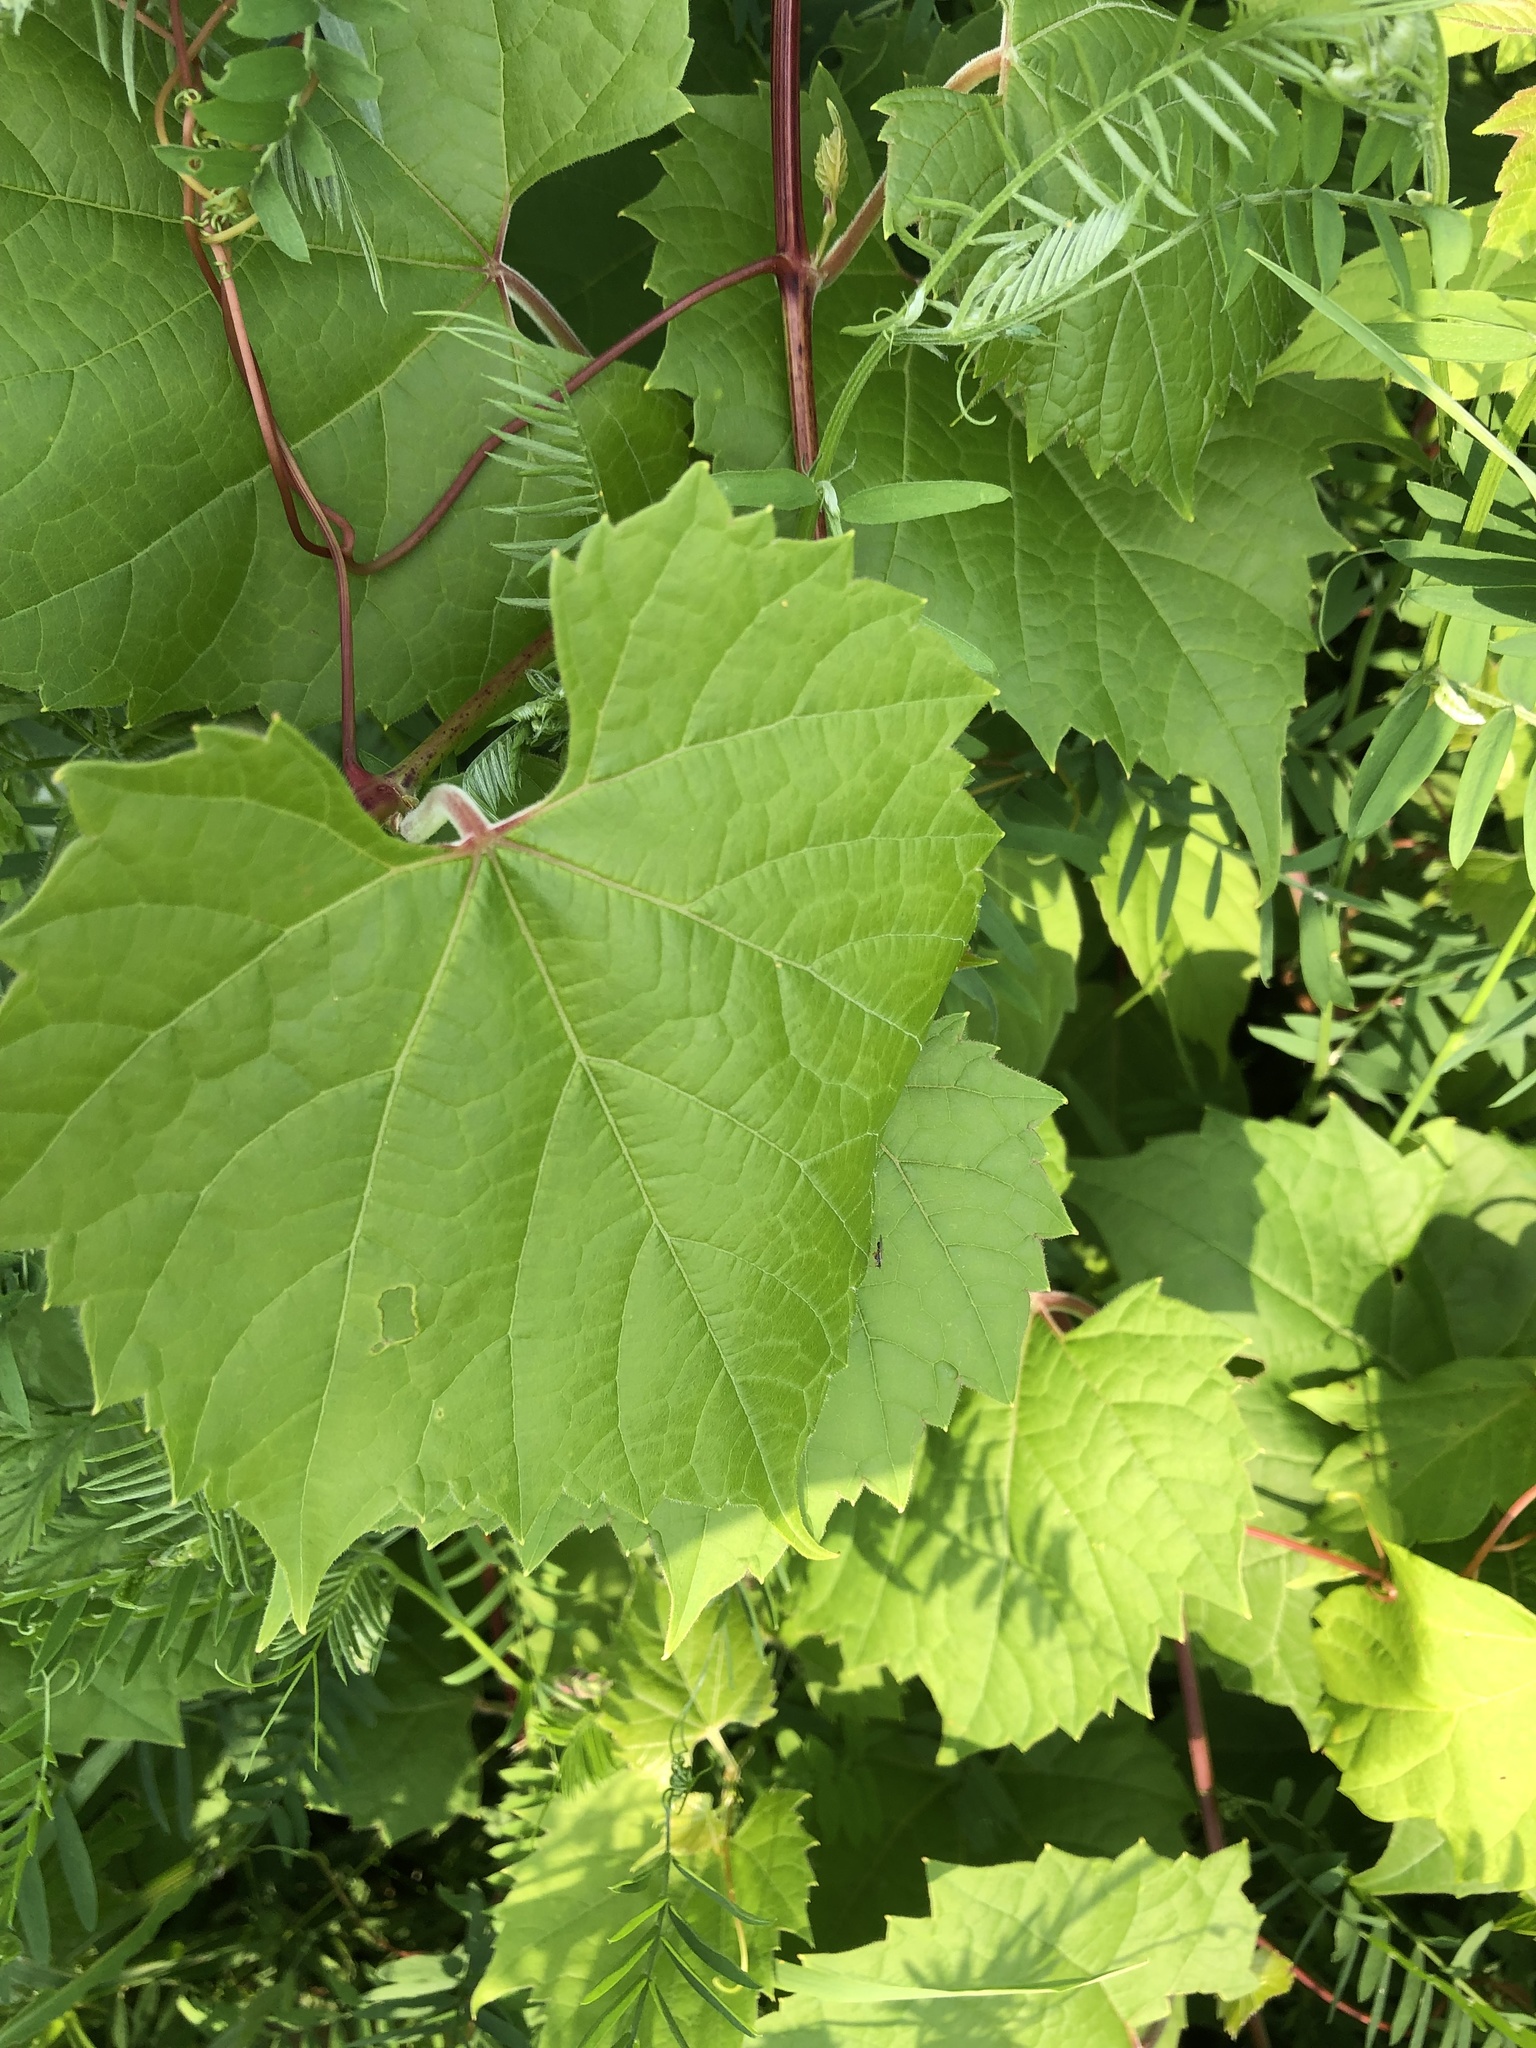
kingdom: Plantae
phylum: Tracheophyta
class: Magnoliopsida
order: Vitales
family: Vitaceae
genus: Vitis
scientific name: Vitis riparia
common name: Frost grape
